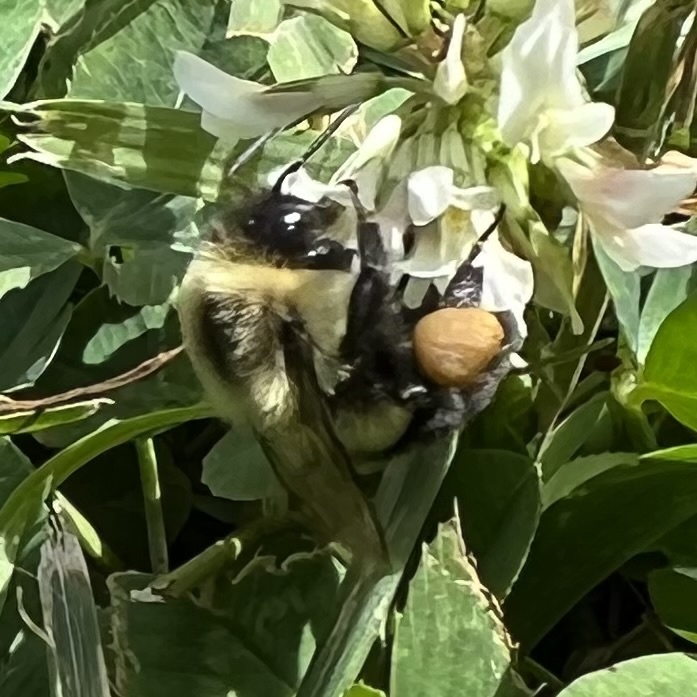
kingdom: Animalia
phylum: Arthropoda
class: Insecta
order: Hymenoptera
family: Apidae
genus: Bombus
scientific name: Bombus impatiens
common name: Common eastern bumble bee
